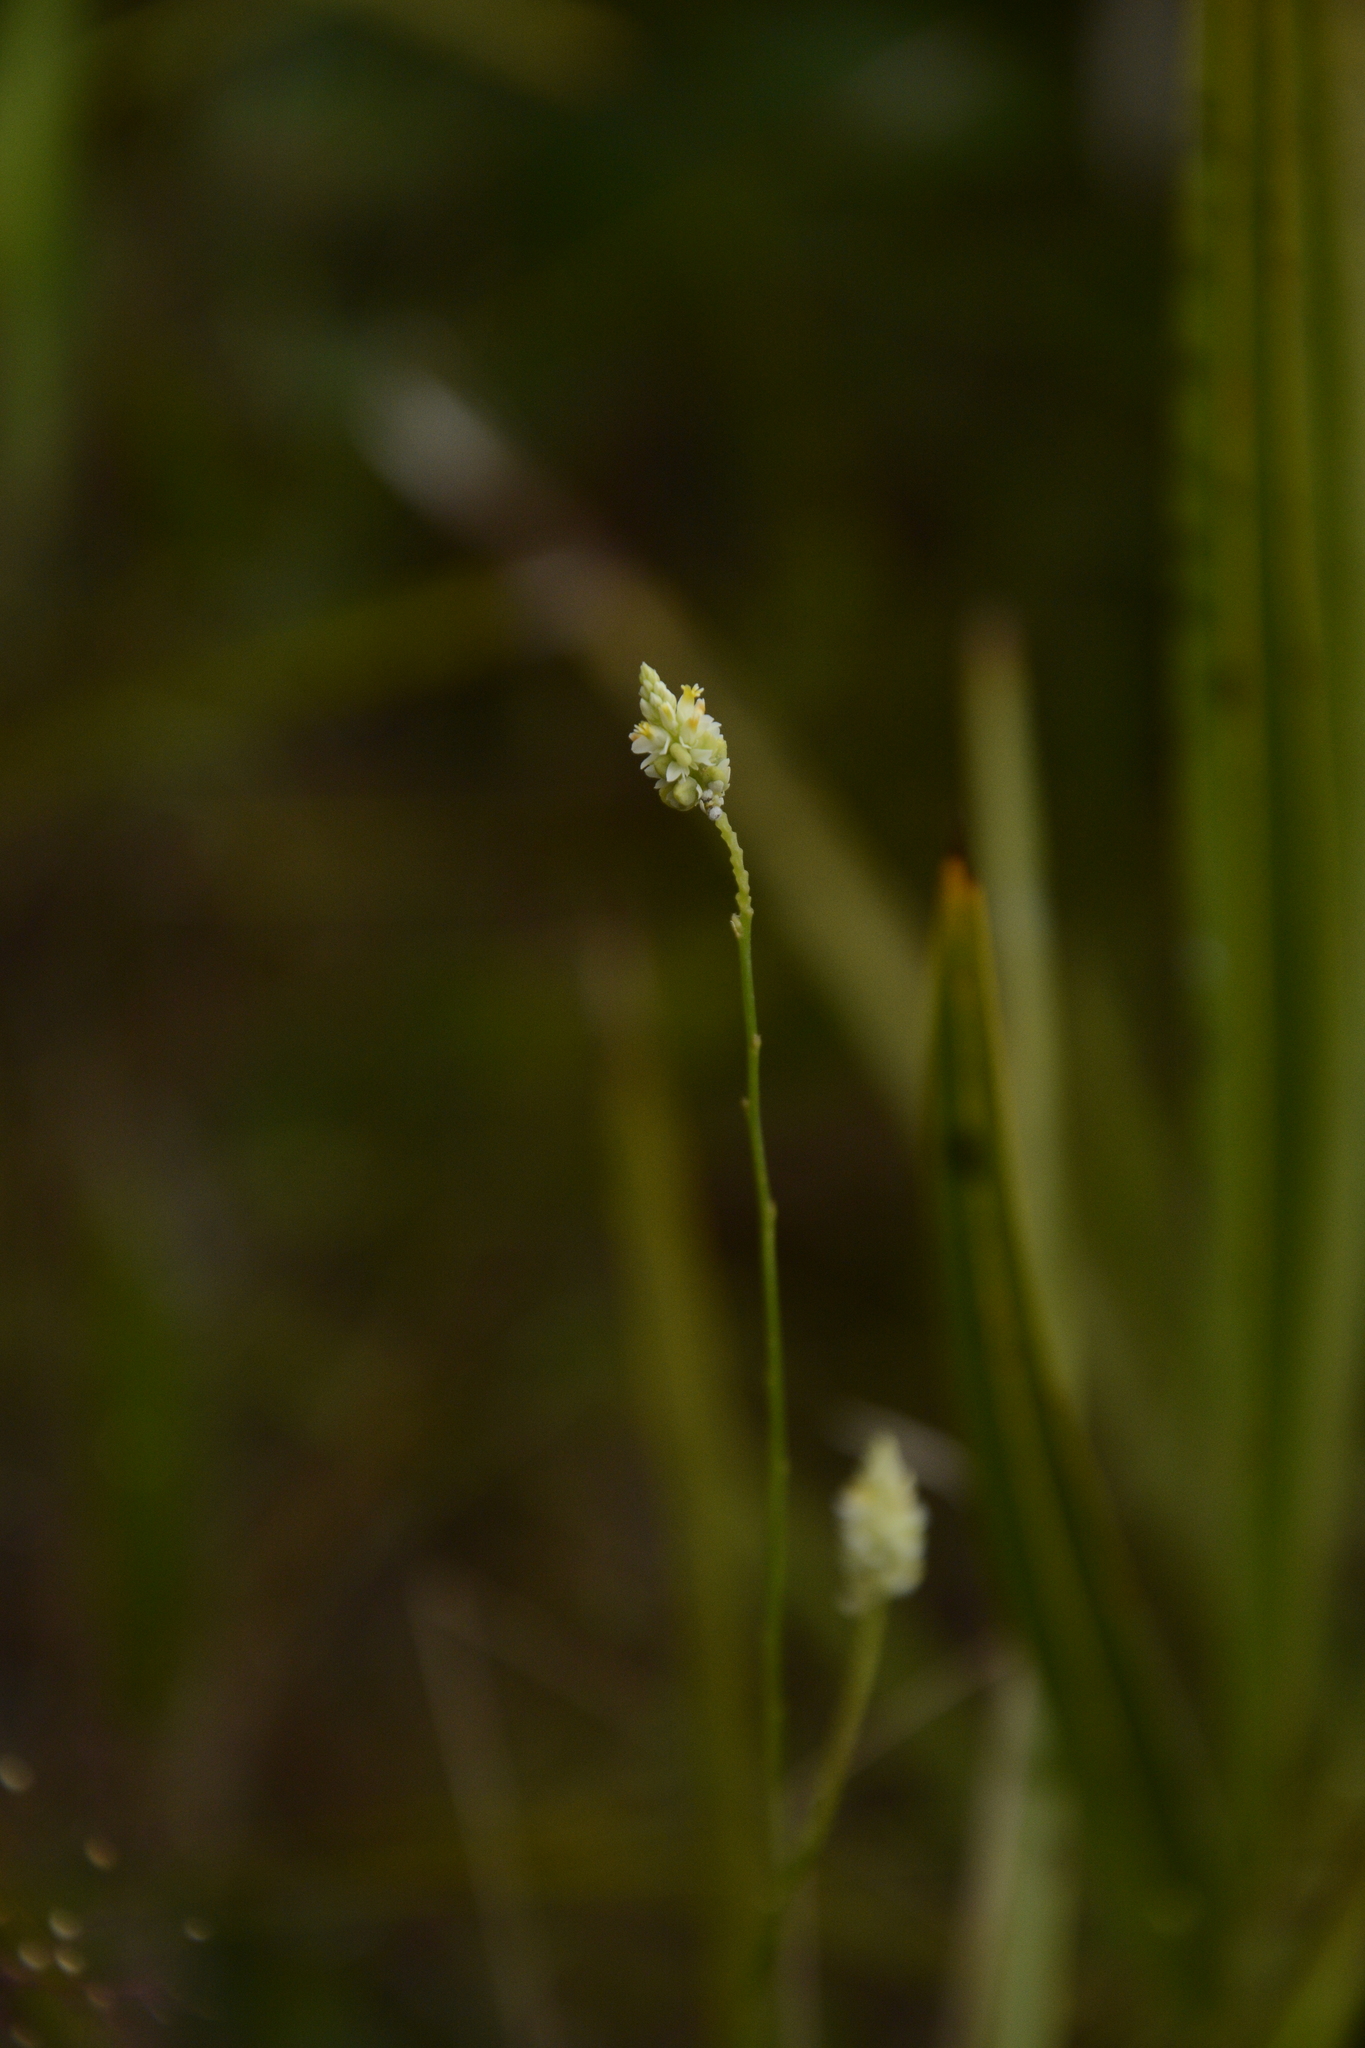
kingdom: Plantae
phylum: Tracheophyta
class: Magnoliopsida
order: Fabales
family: Polygalaceae
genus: Polygala
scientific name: Polygala setacea
